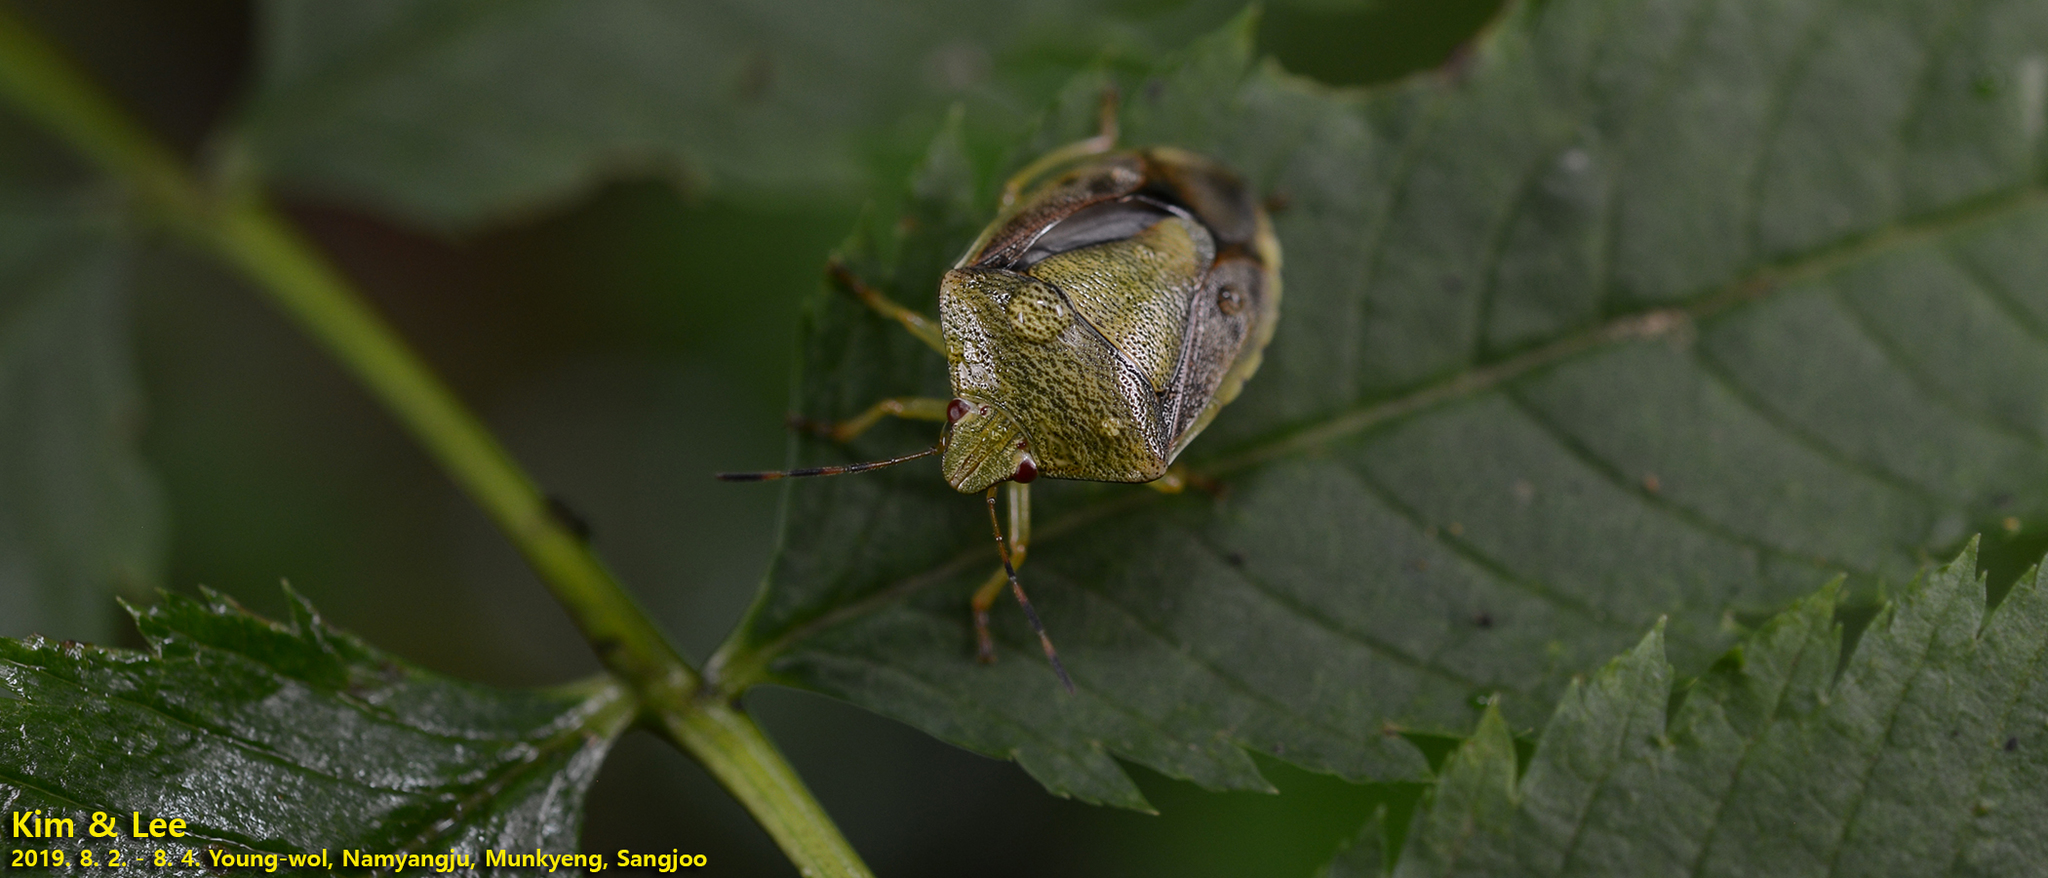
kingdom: Animalia
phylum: Arthropoda
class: Insecta
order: Hemiptera
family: Pentatomidae
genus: Plautia
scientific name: Plautia stali
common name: Stink bug
